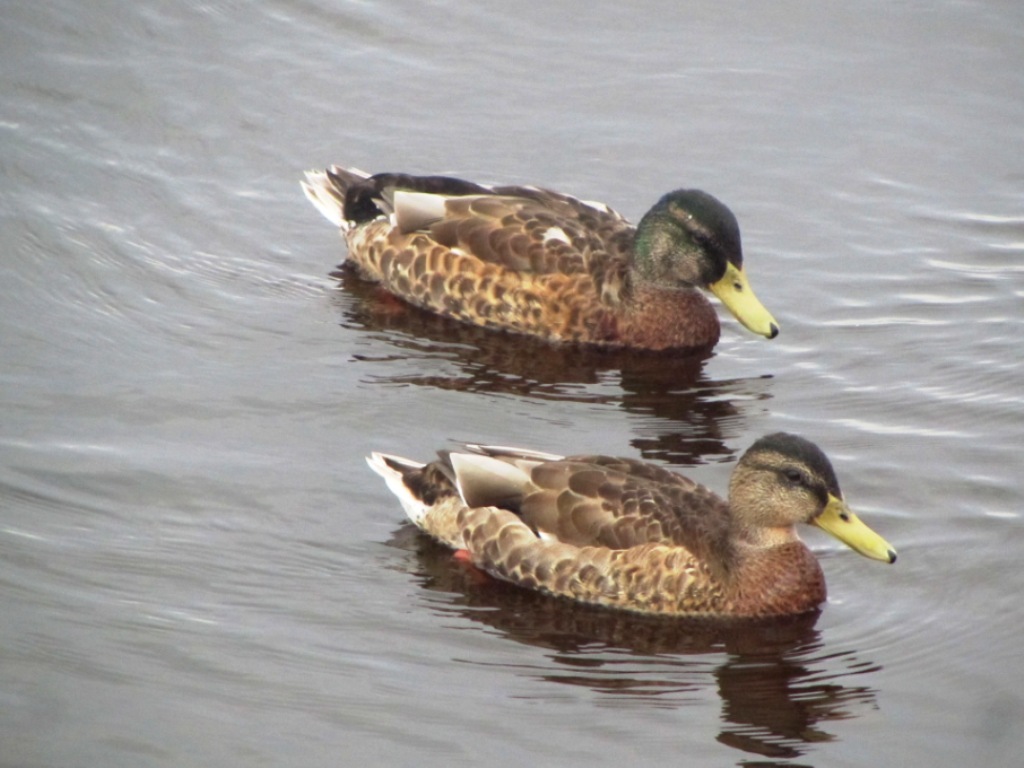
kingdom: Animalia
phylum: Chordata
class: Aves
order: Anseriformes
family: Anatidae
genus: Anas
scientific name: Anas platyrhynchos
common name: Mallard
